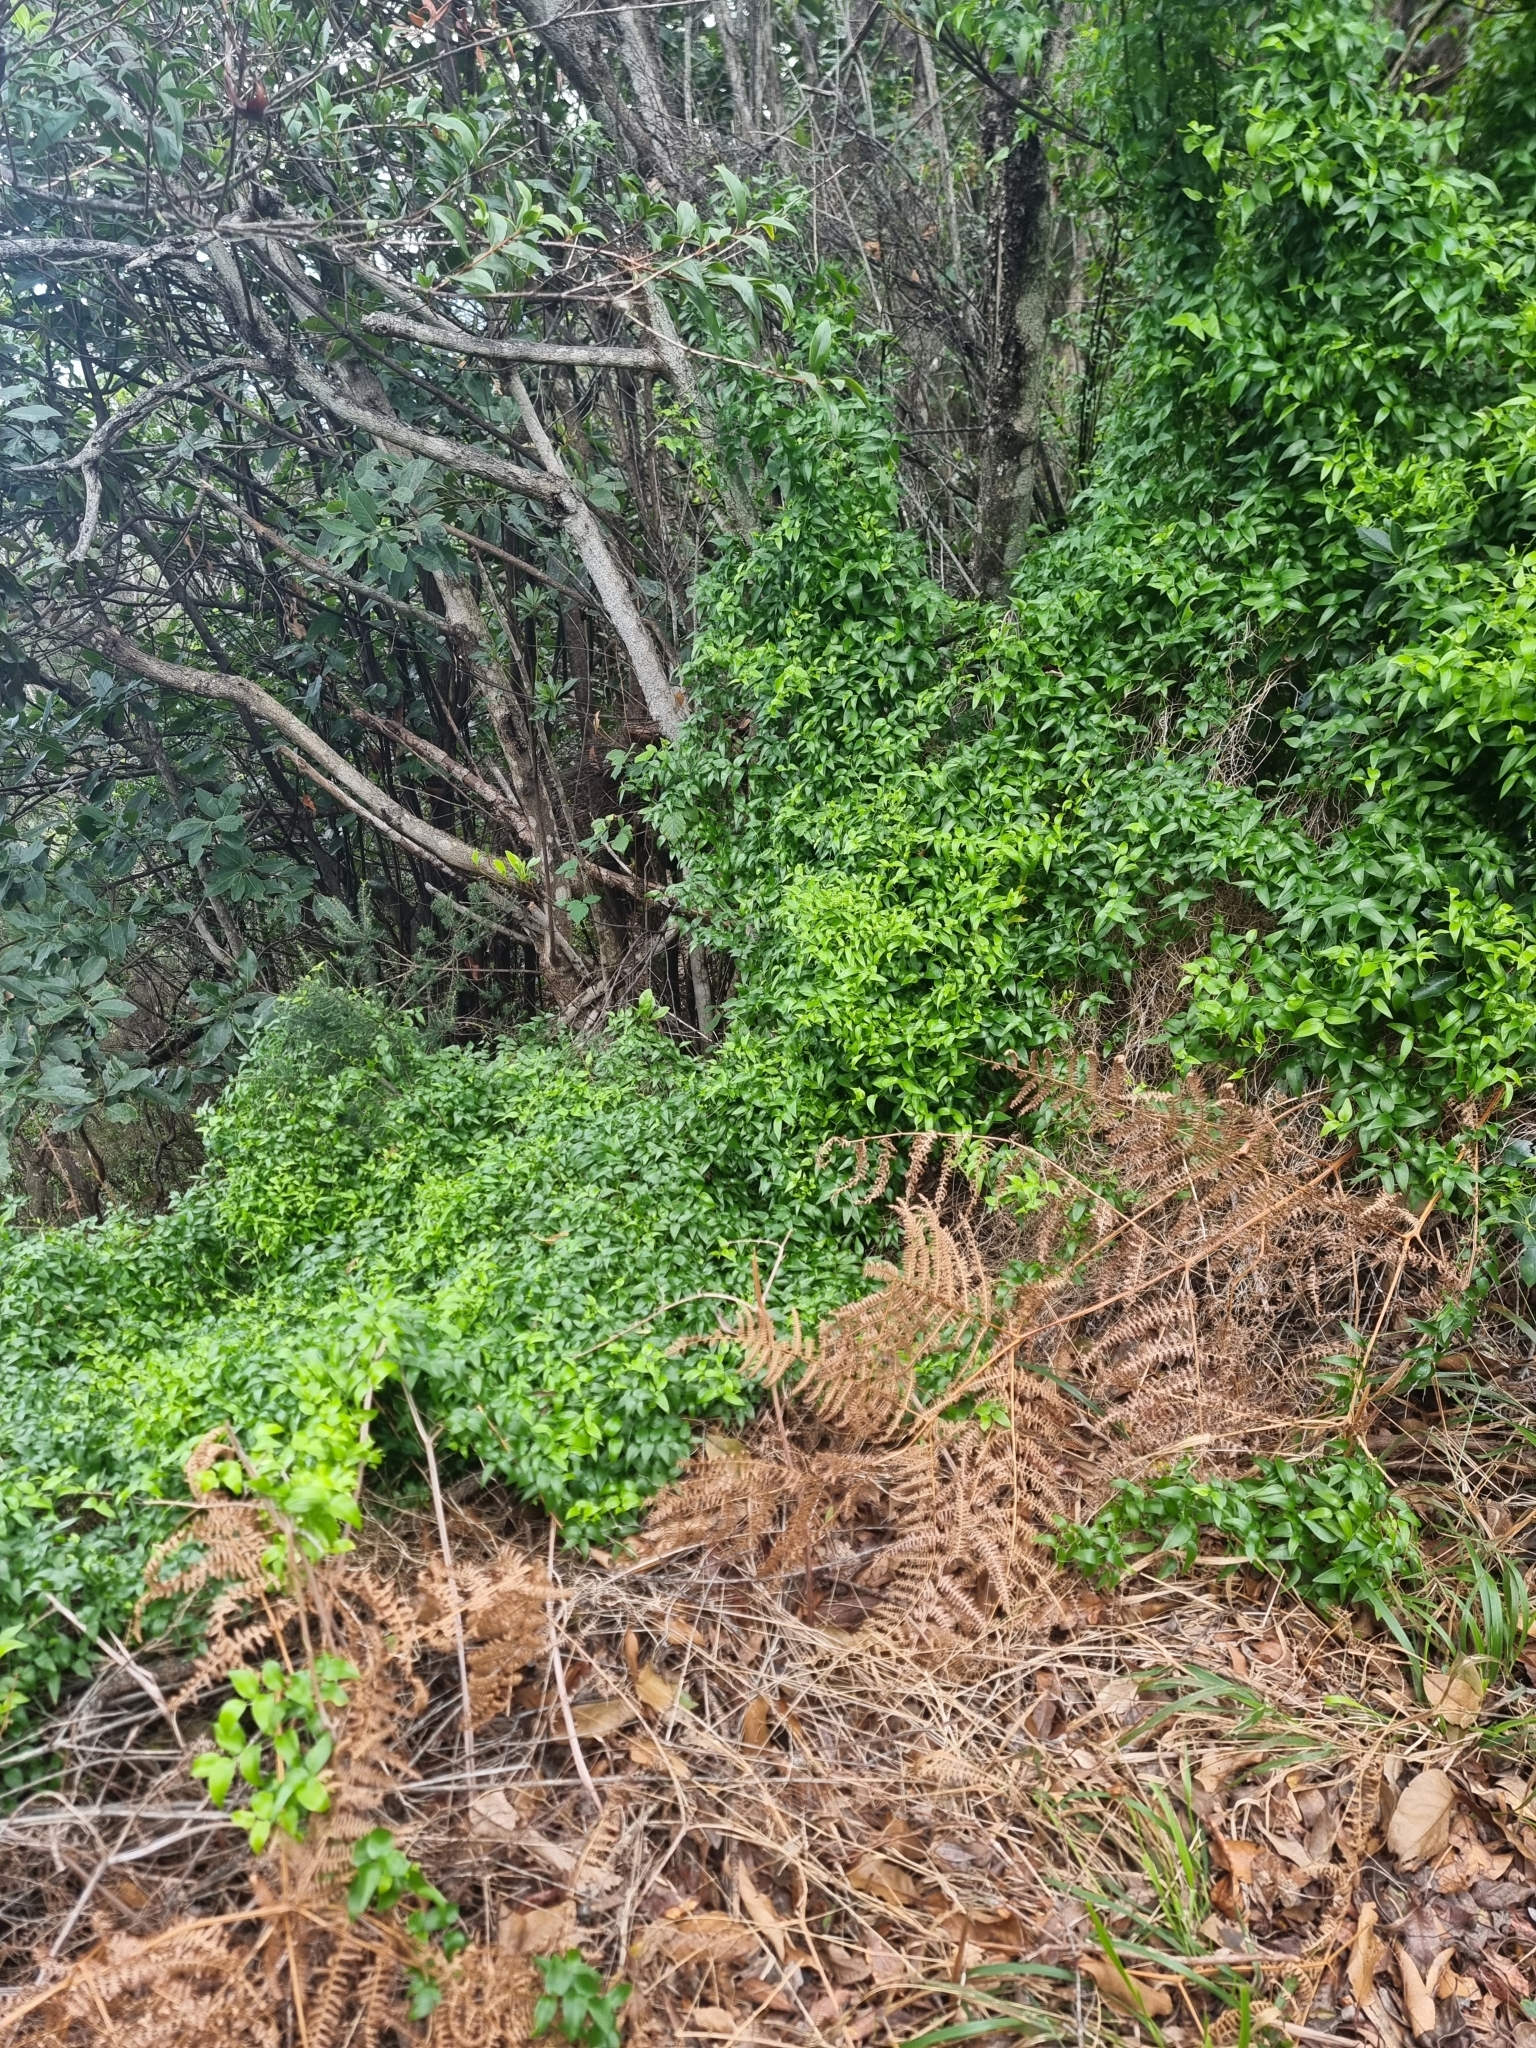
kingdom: Plantae
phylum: Tracheophyta
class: Liliopsida
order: Asparagales
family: Asparagaceae
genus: Asparagus
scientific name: Asparagus asparagoides
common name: African asparagus fern
